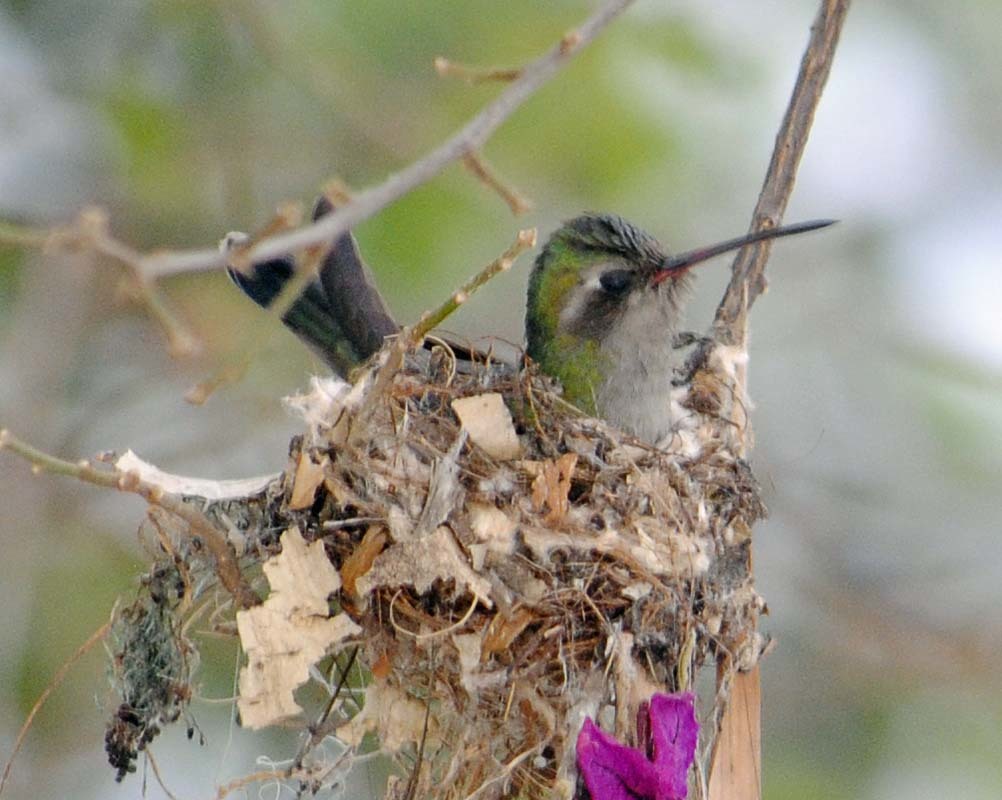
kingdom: Animalia
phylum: Chordata
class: Aves
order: Apodiformes
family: Trochilidae
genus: Cynanthus
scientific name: Cynanthus latirostris
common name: Broad-billed hummingbird
